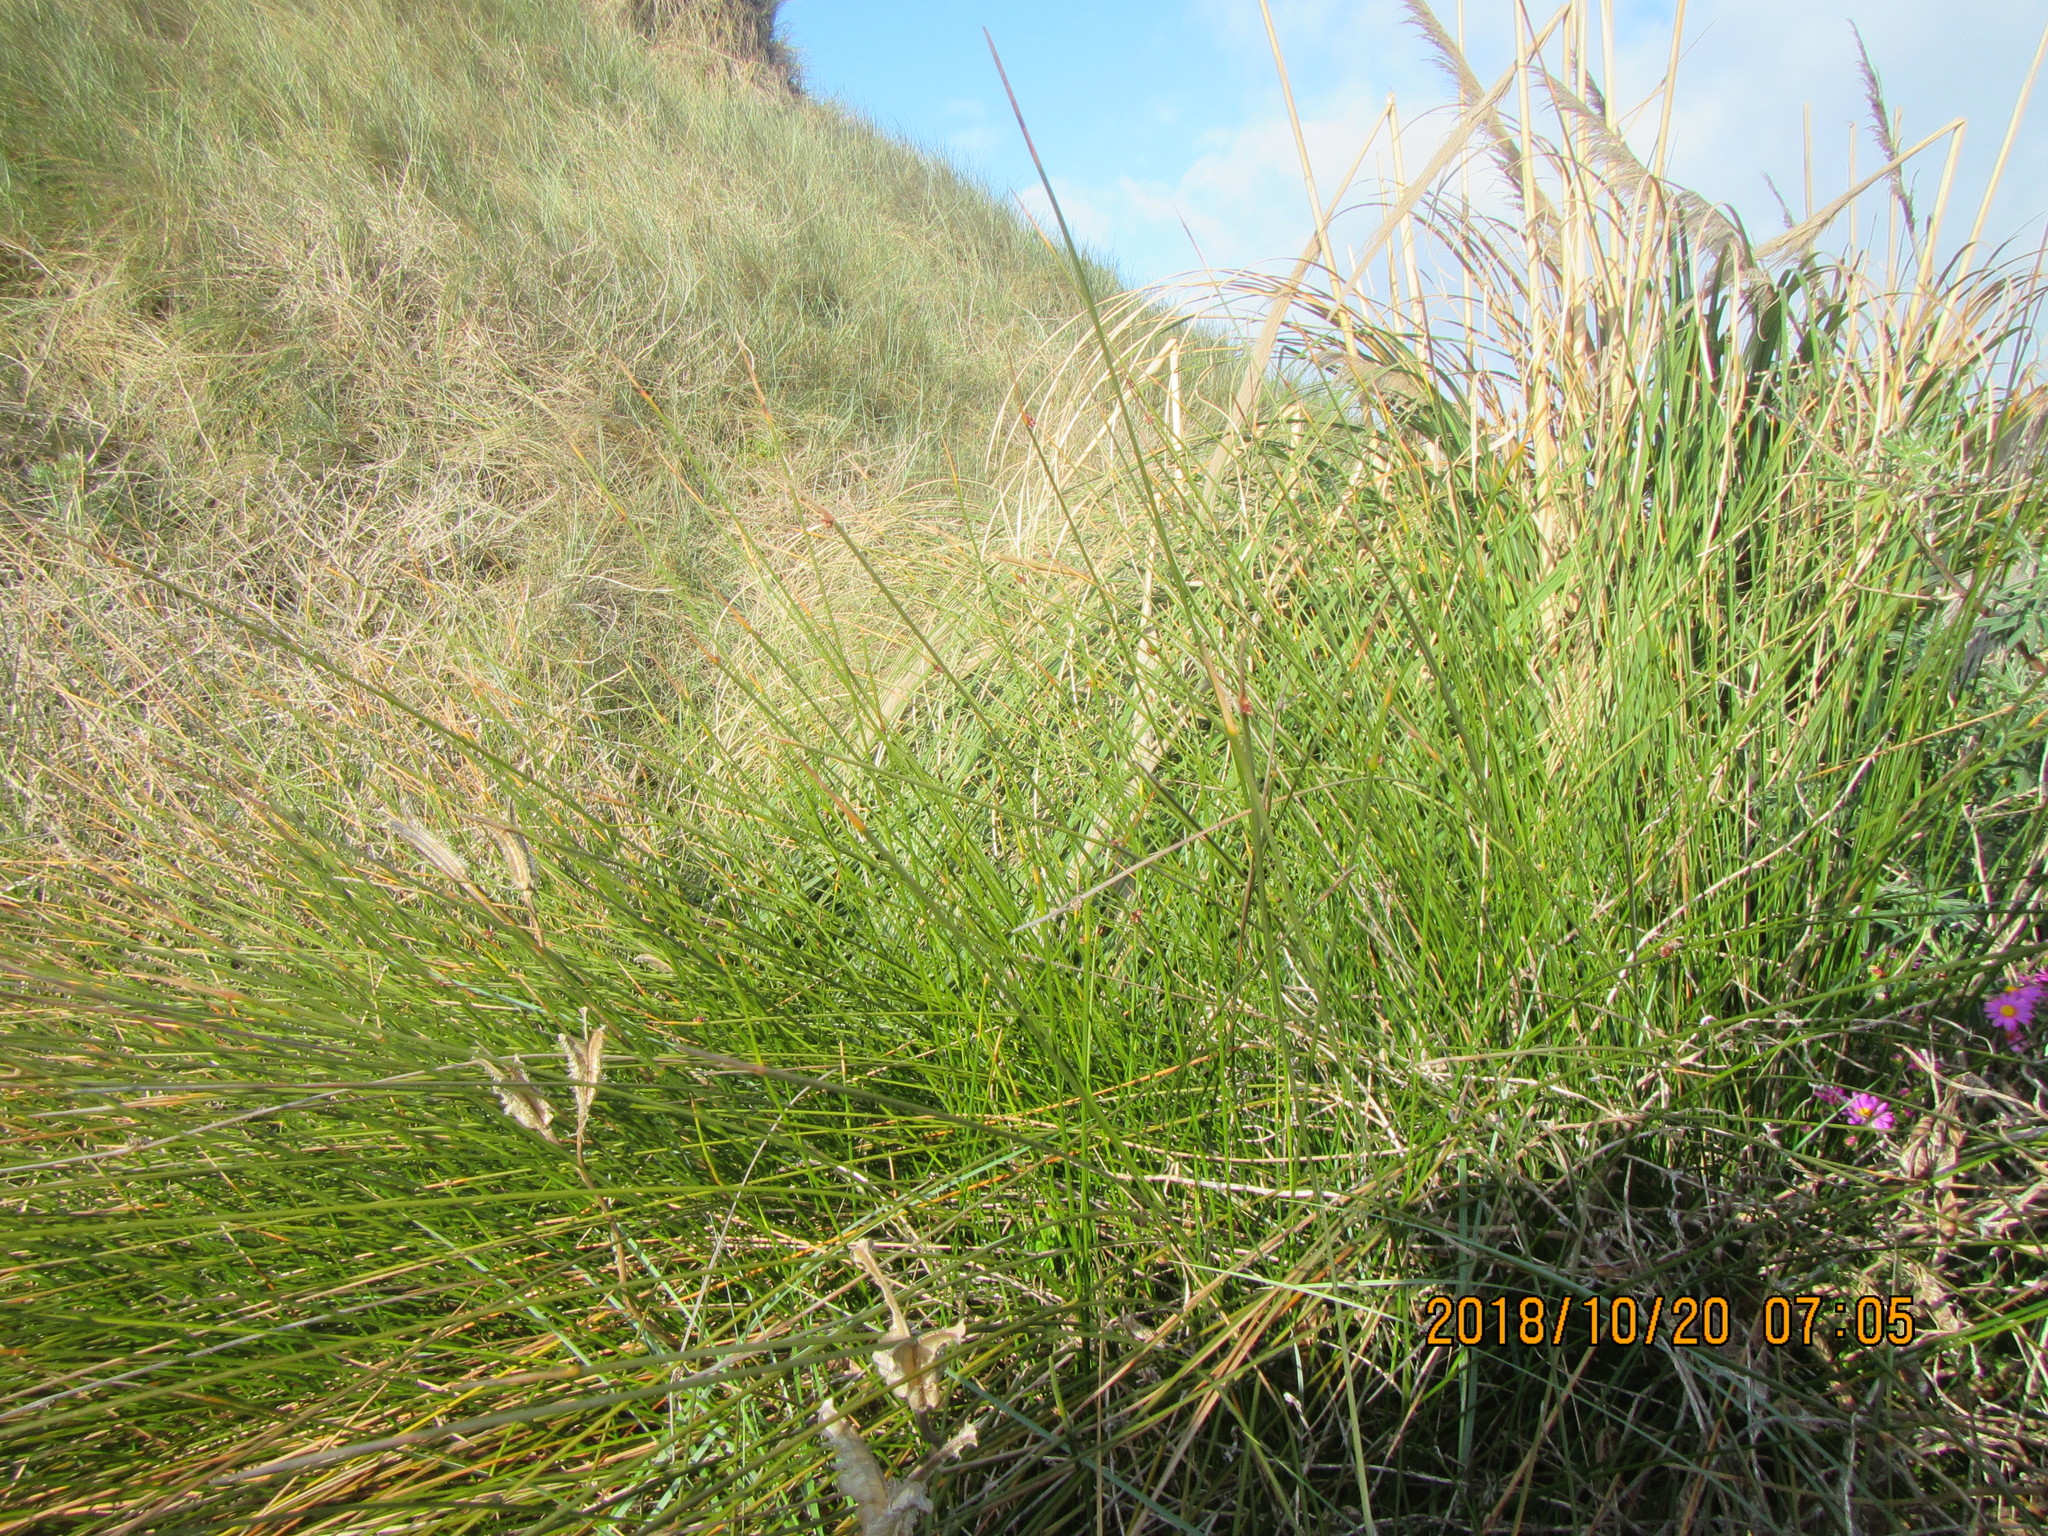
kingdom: Plantae
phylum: Tracheophyta
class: Liliopsida
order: Poales
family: Cyperaceae
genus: Ficinia
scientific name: Ficinia nodosa
